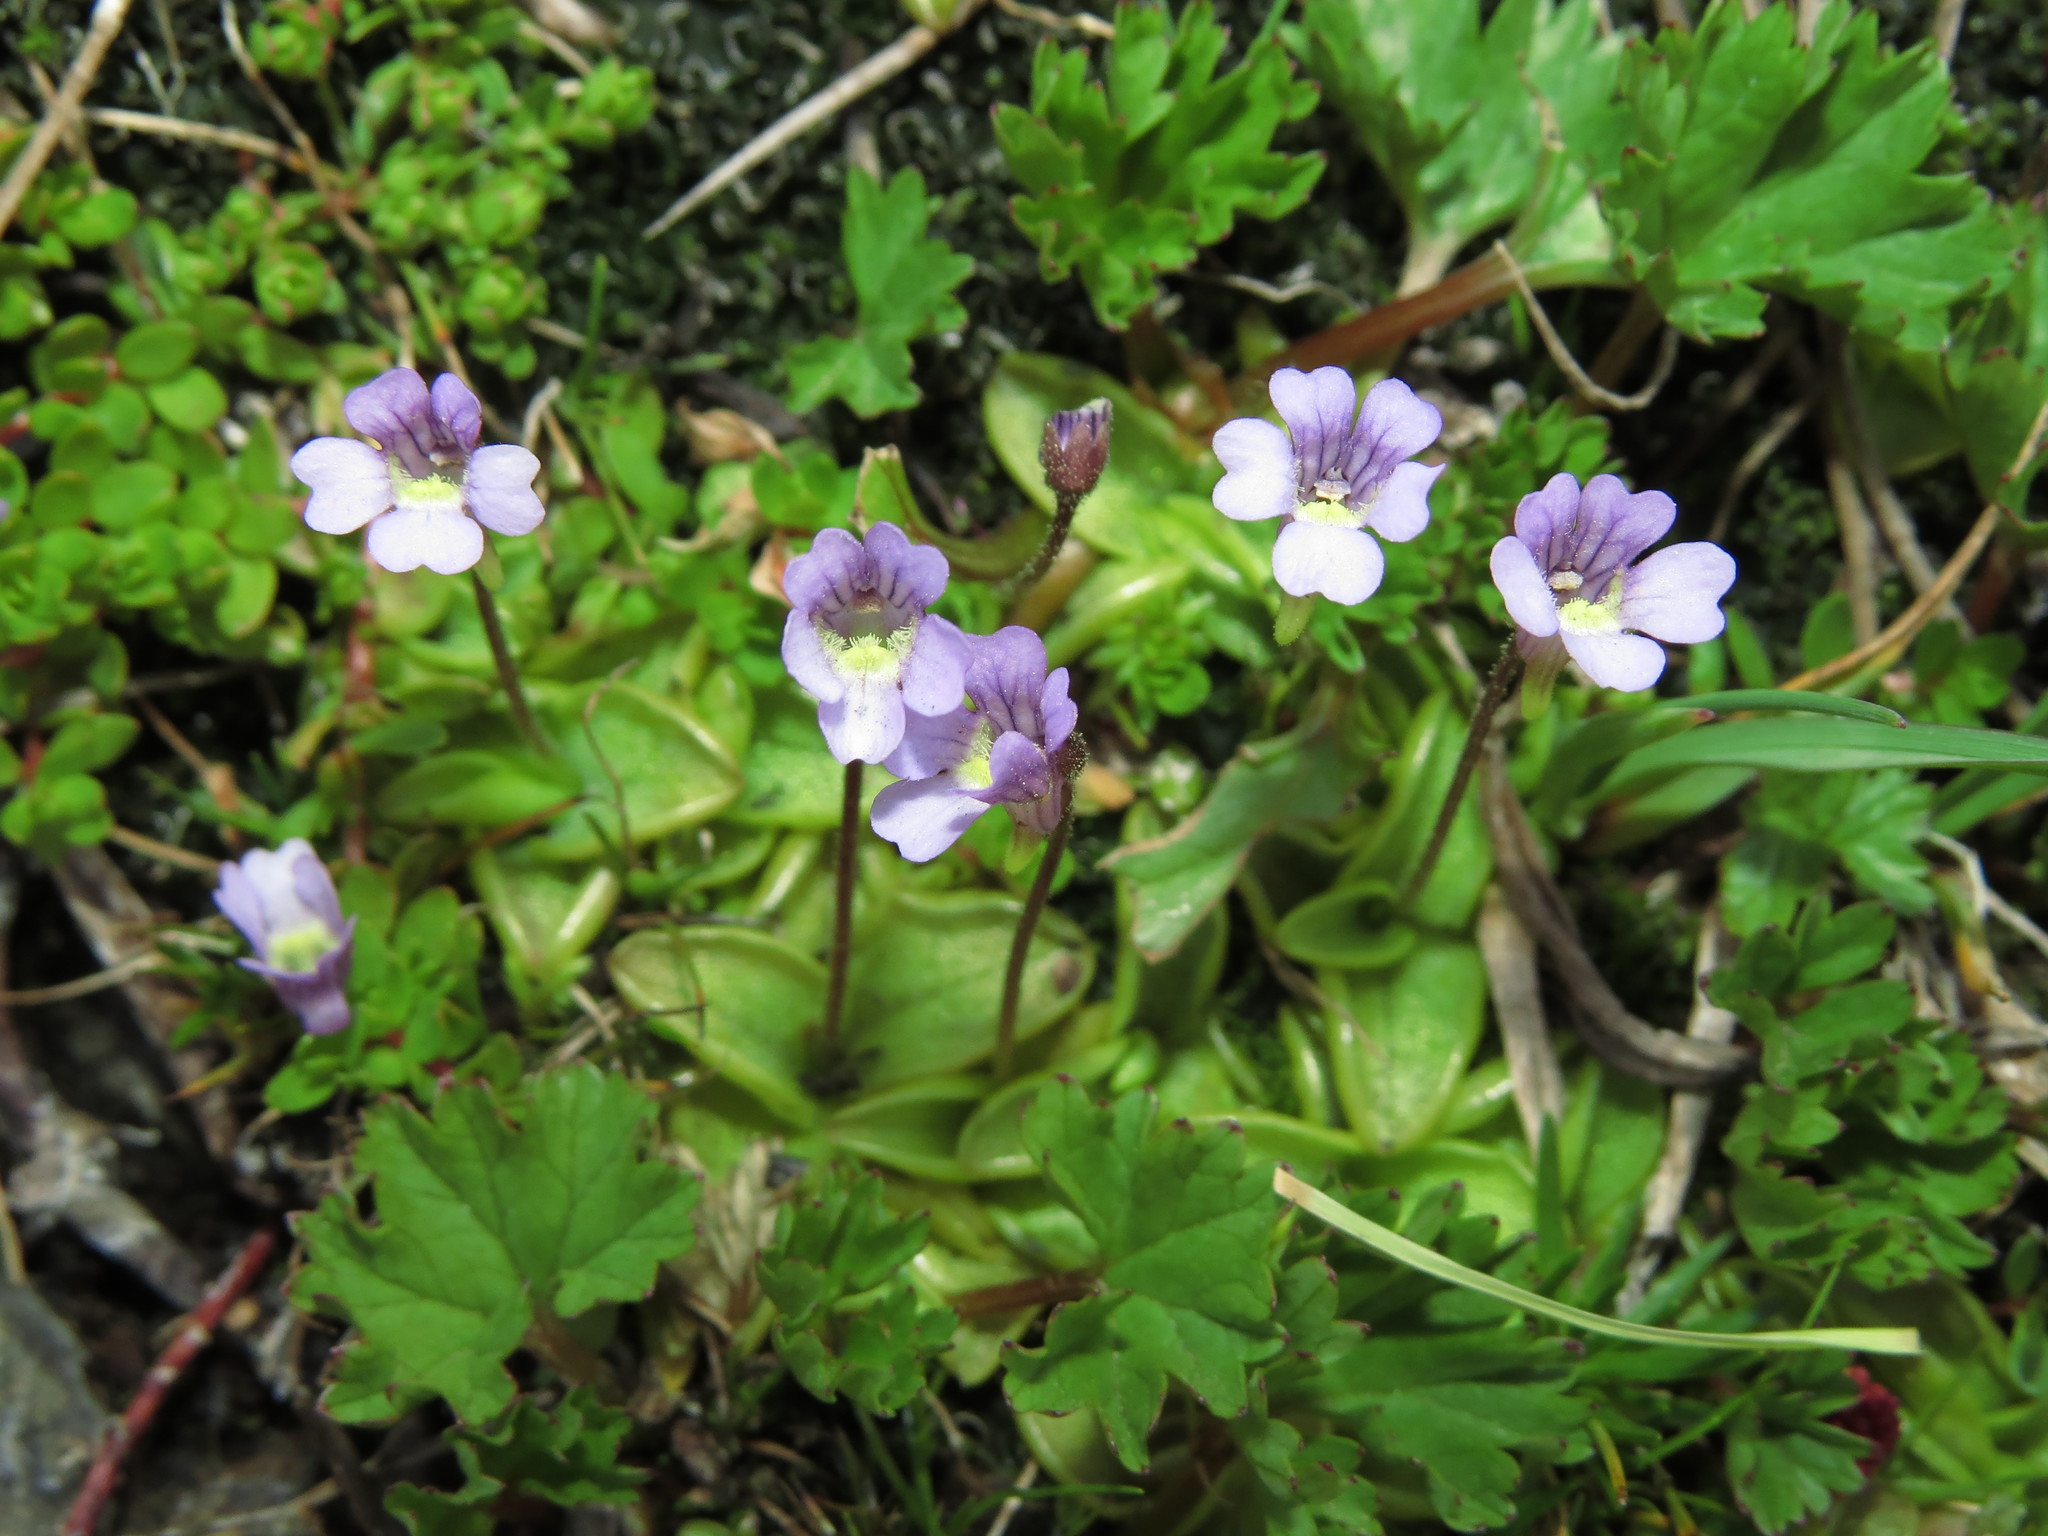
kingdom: Plantae
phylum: Tracheophyta
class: Magnoliopsida
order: Lamiales
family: Lentibulariaceae
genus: Pinguicula
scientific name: Pinguicula australandina
